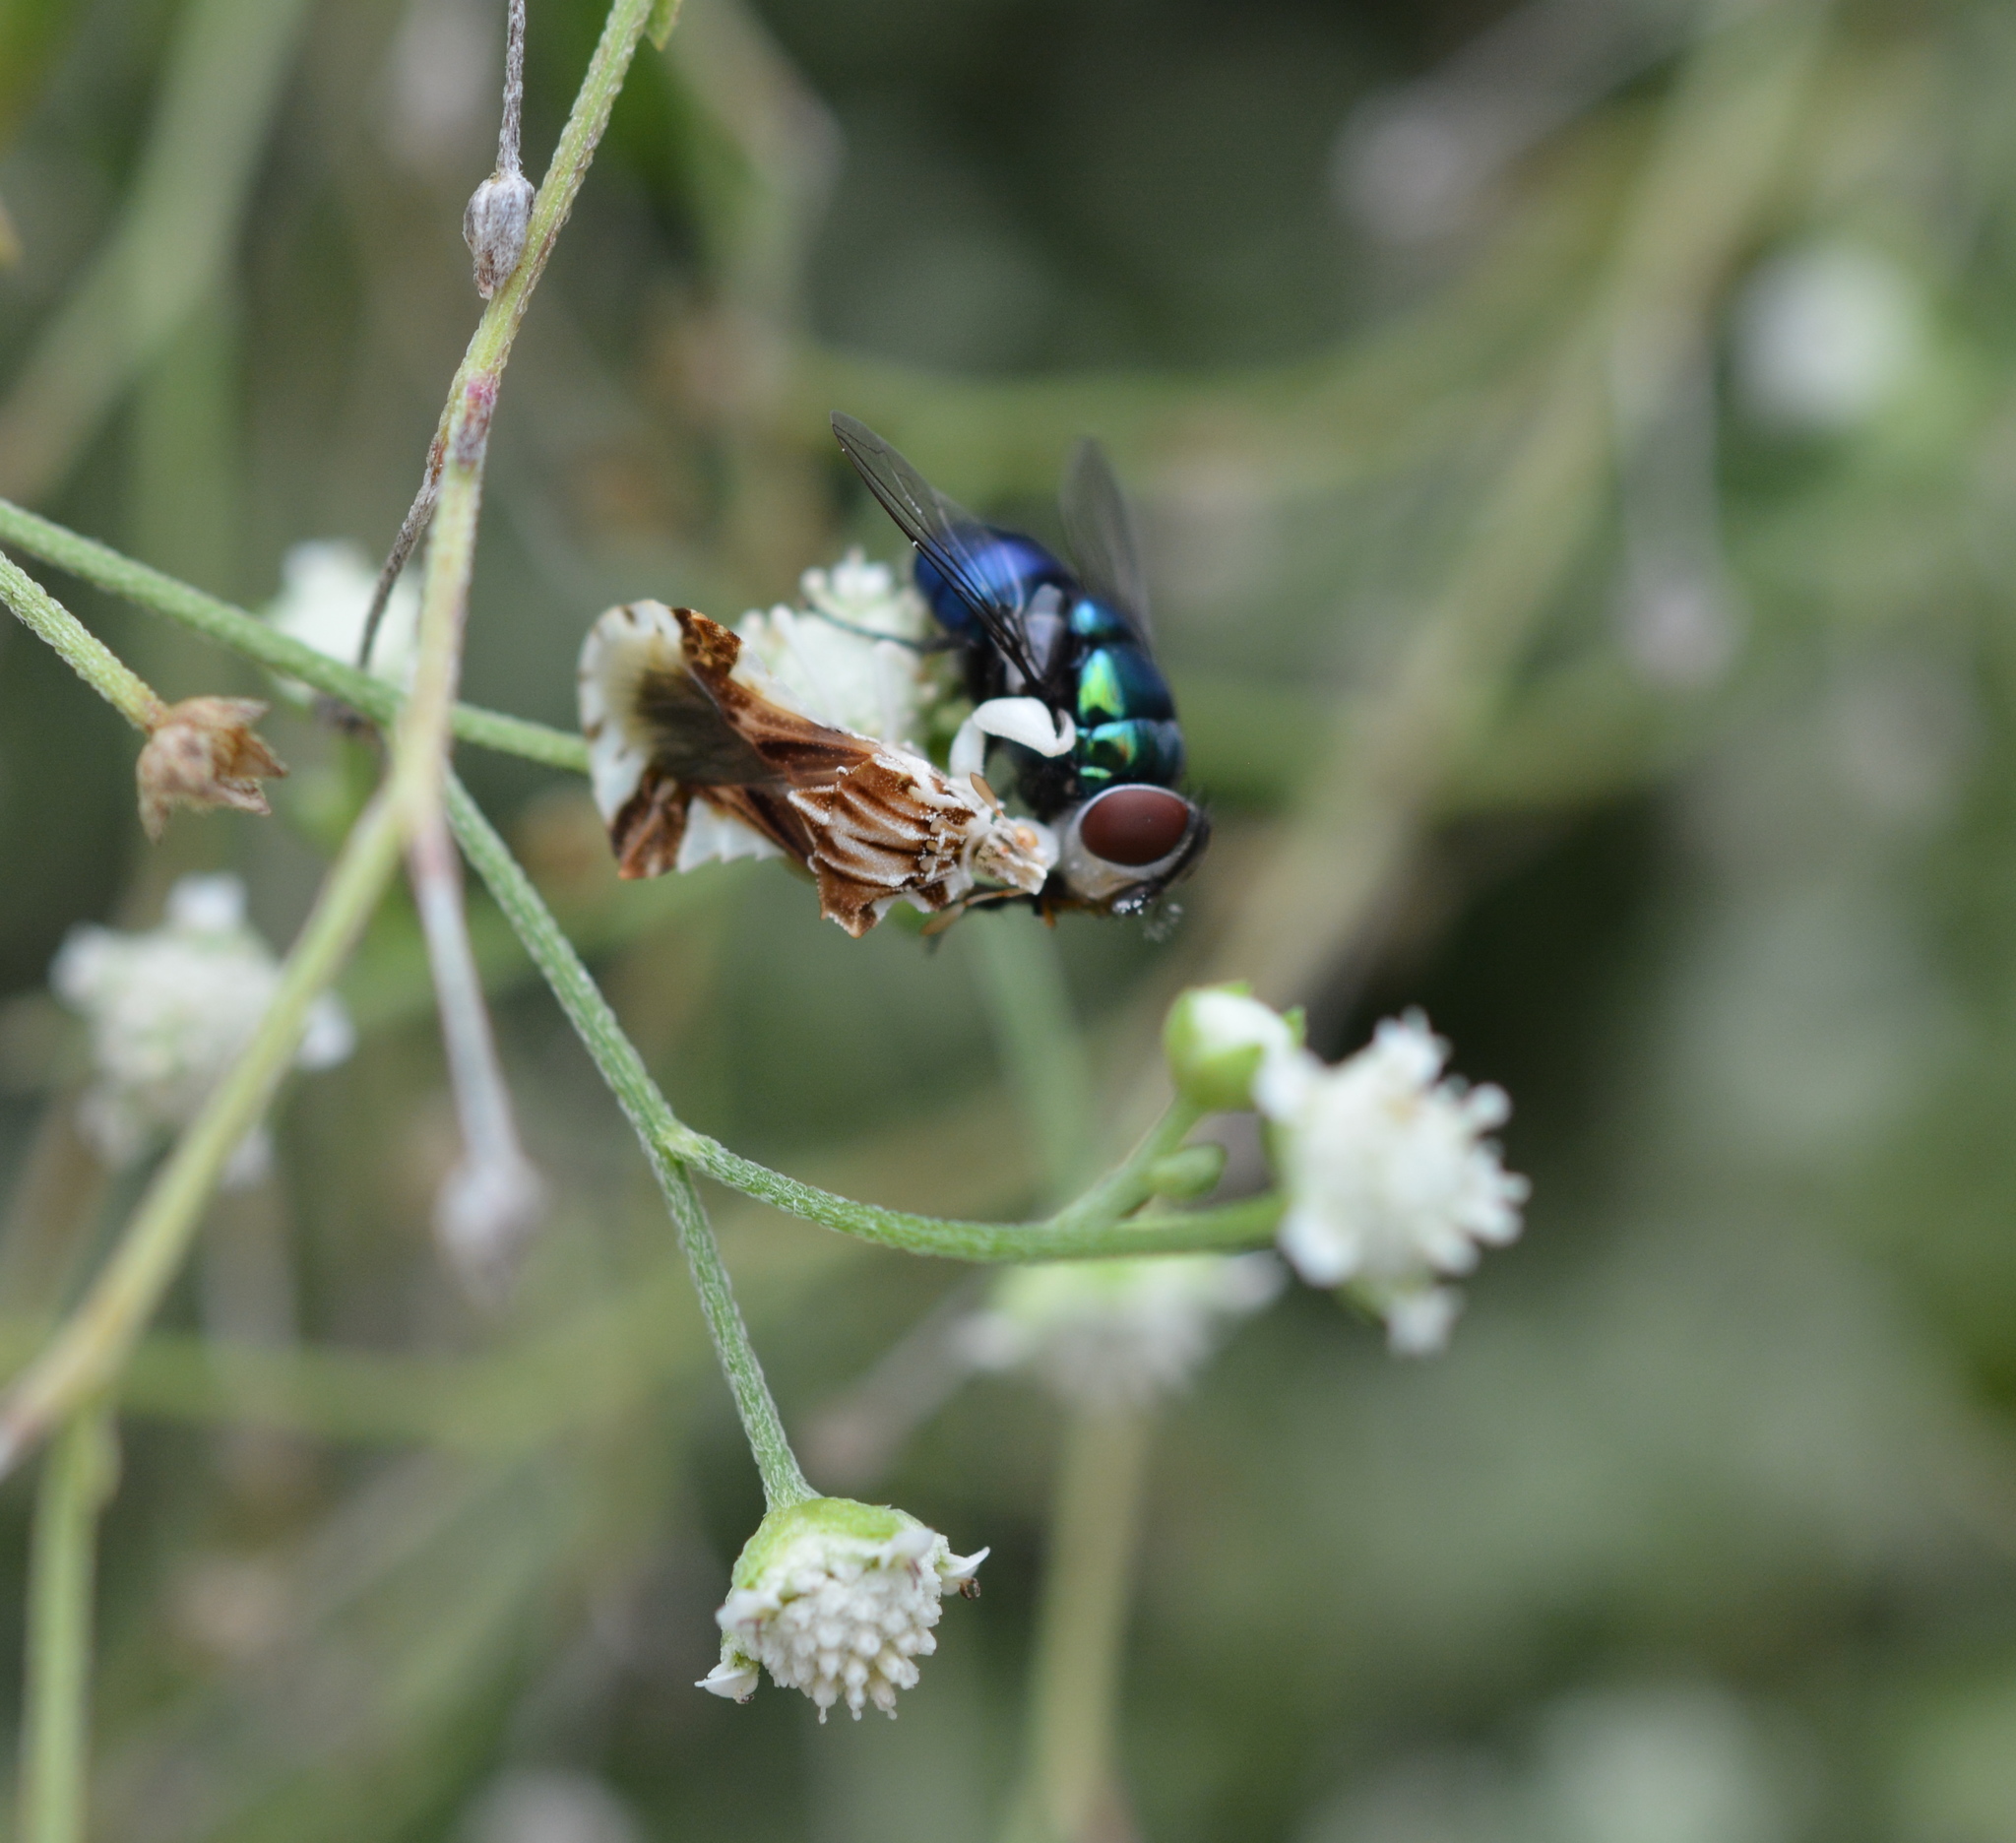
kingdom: Animalia
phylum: Arthropoda
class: Insecta
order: Hemiptera
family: Reduviidae
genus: Phymata
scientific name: Phymata fasciata
